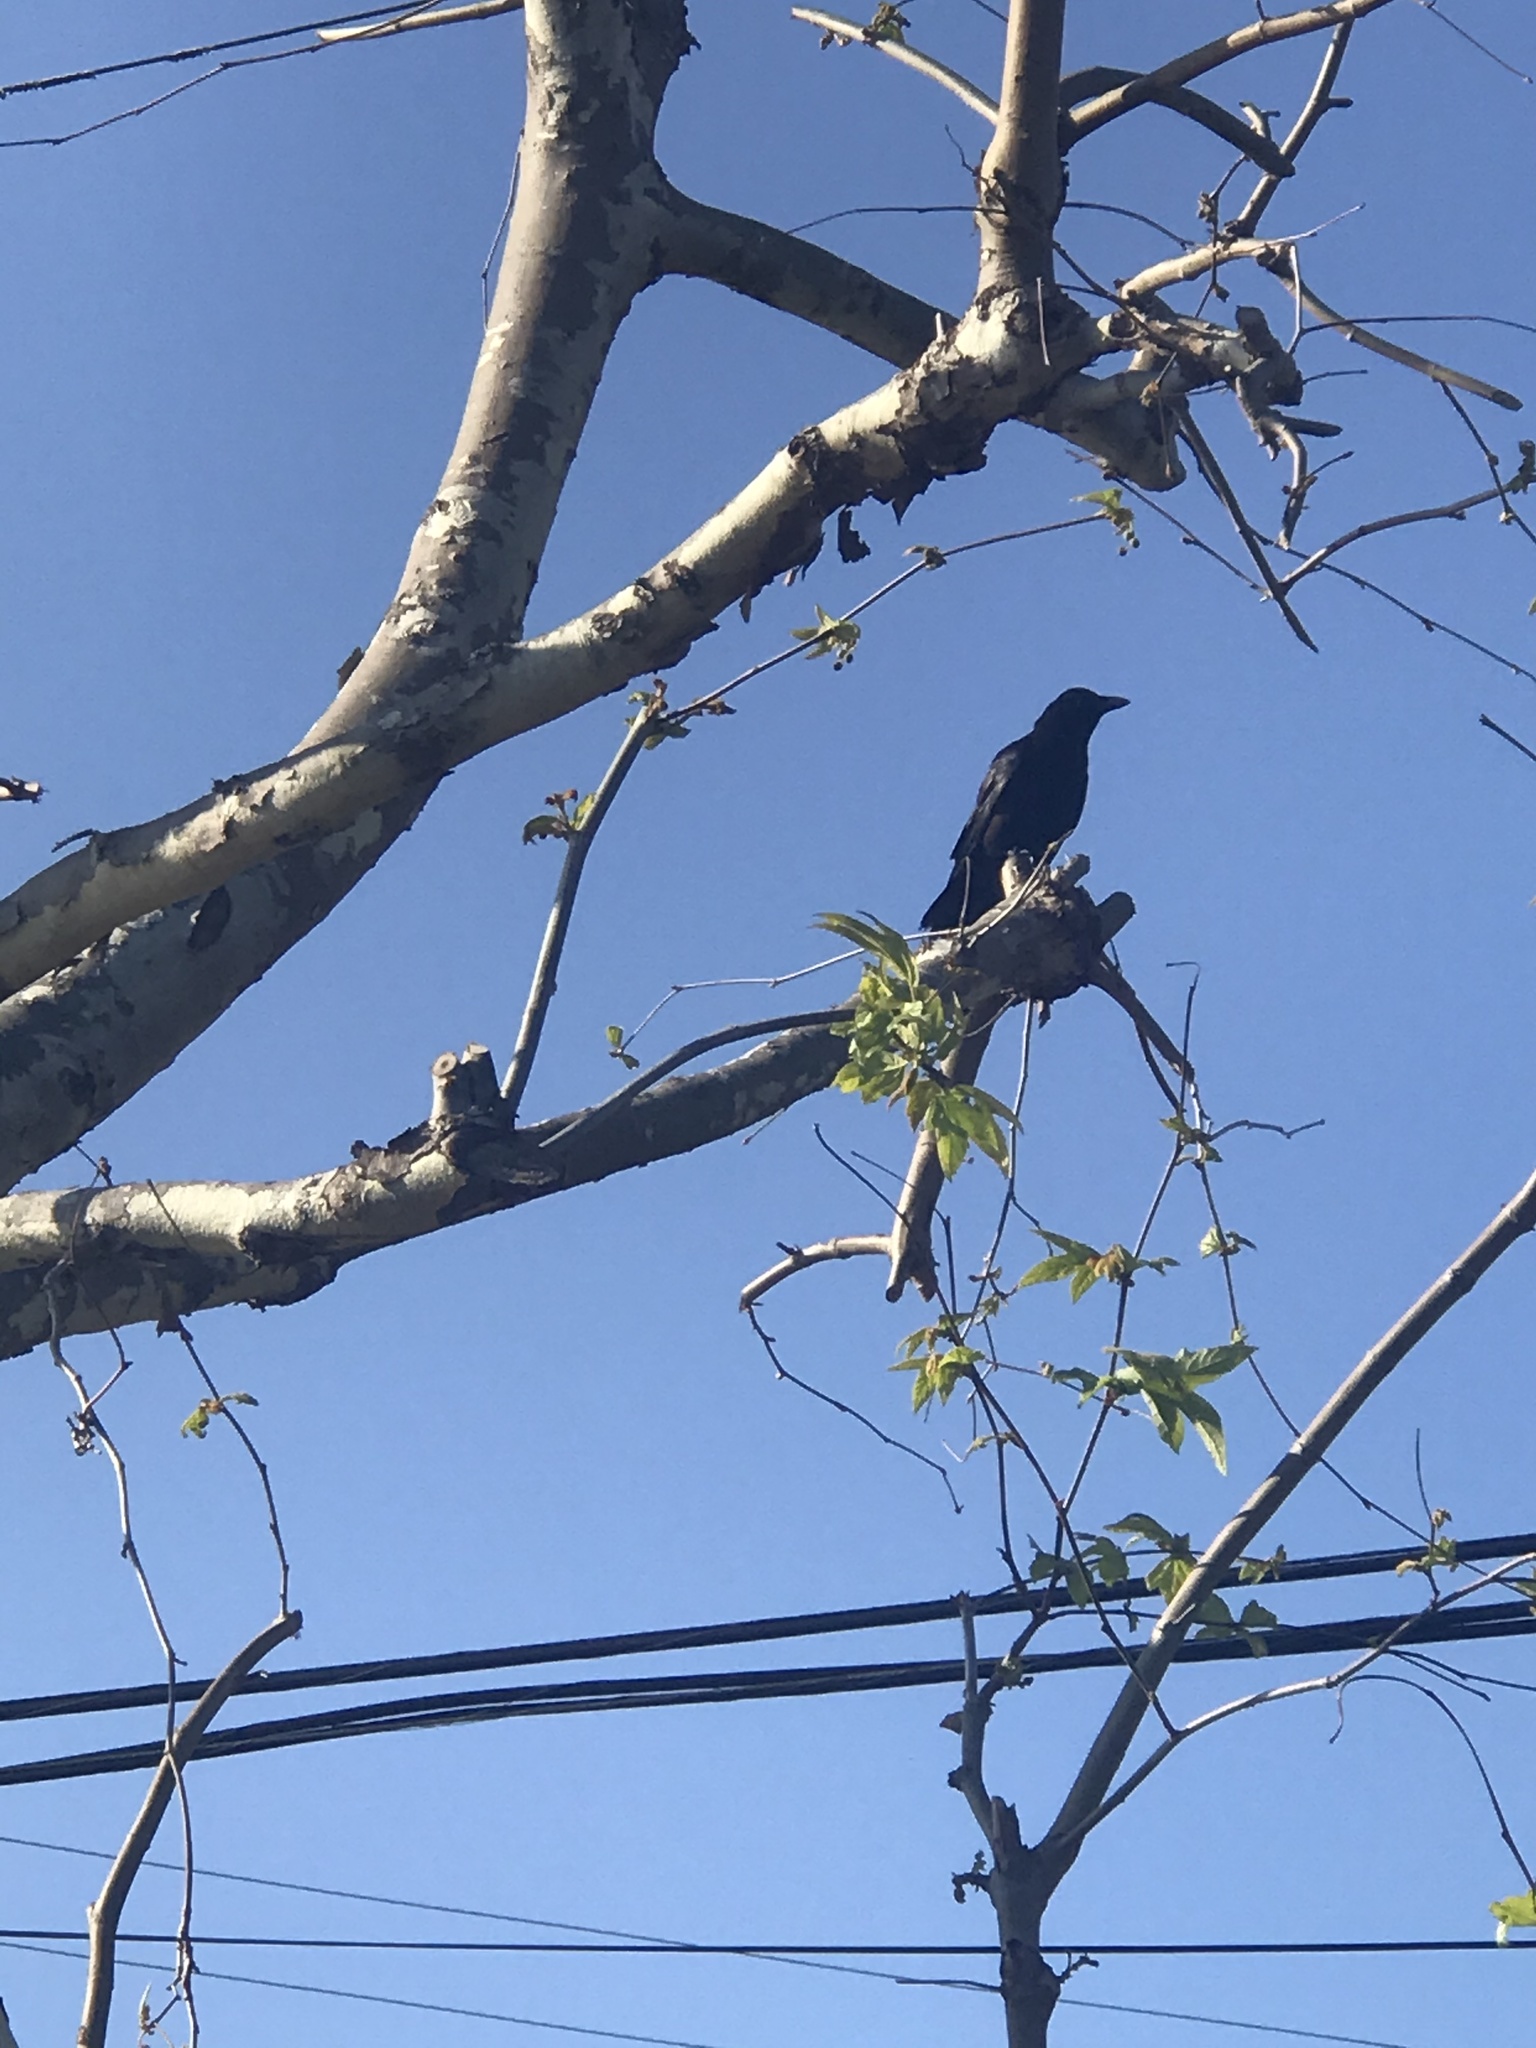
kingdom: Animalia
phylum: Chordata
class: Aves
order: Passeriformes
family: Corvidae
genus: Corvus
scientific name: Corvus brachyrhynchos
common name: American crow
